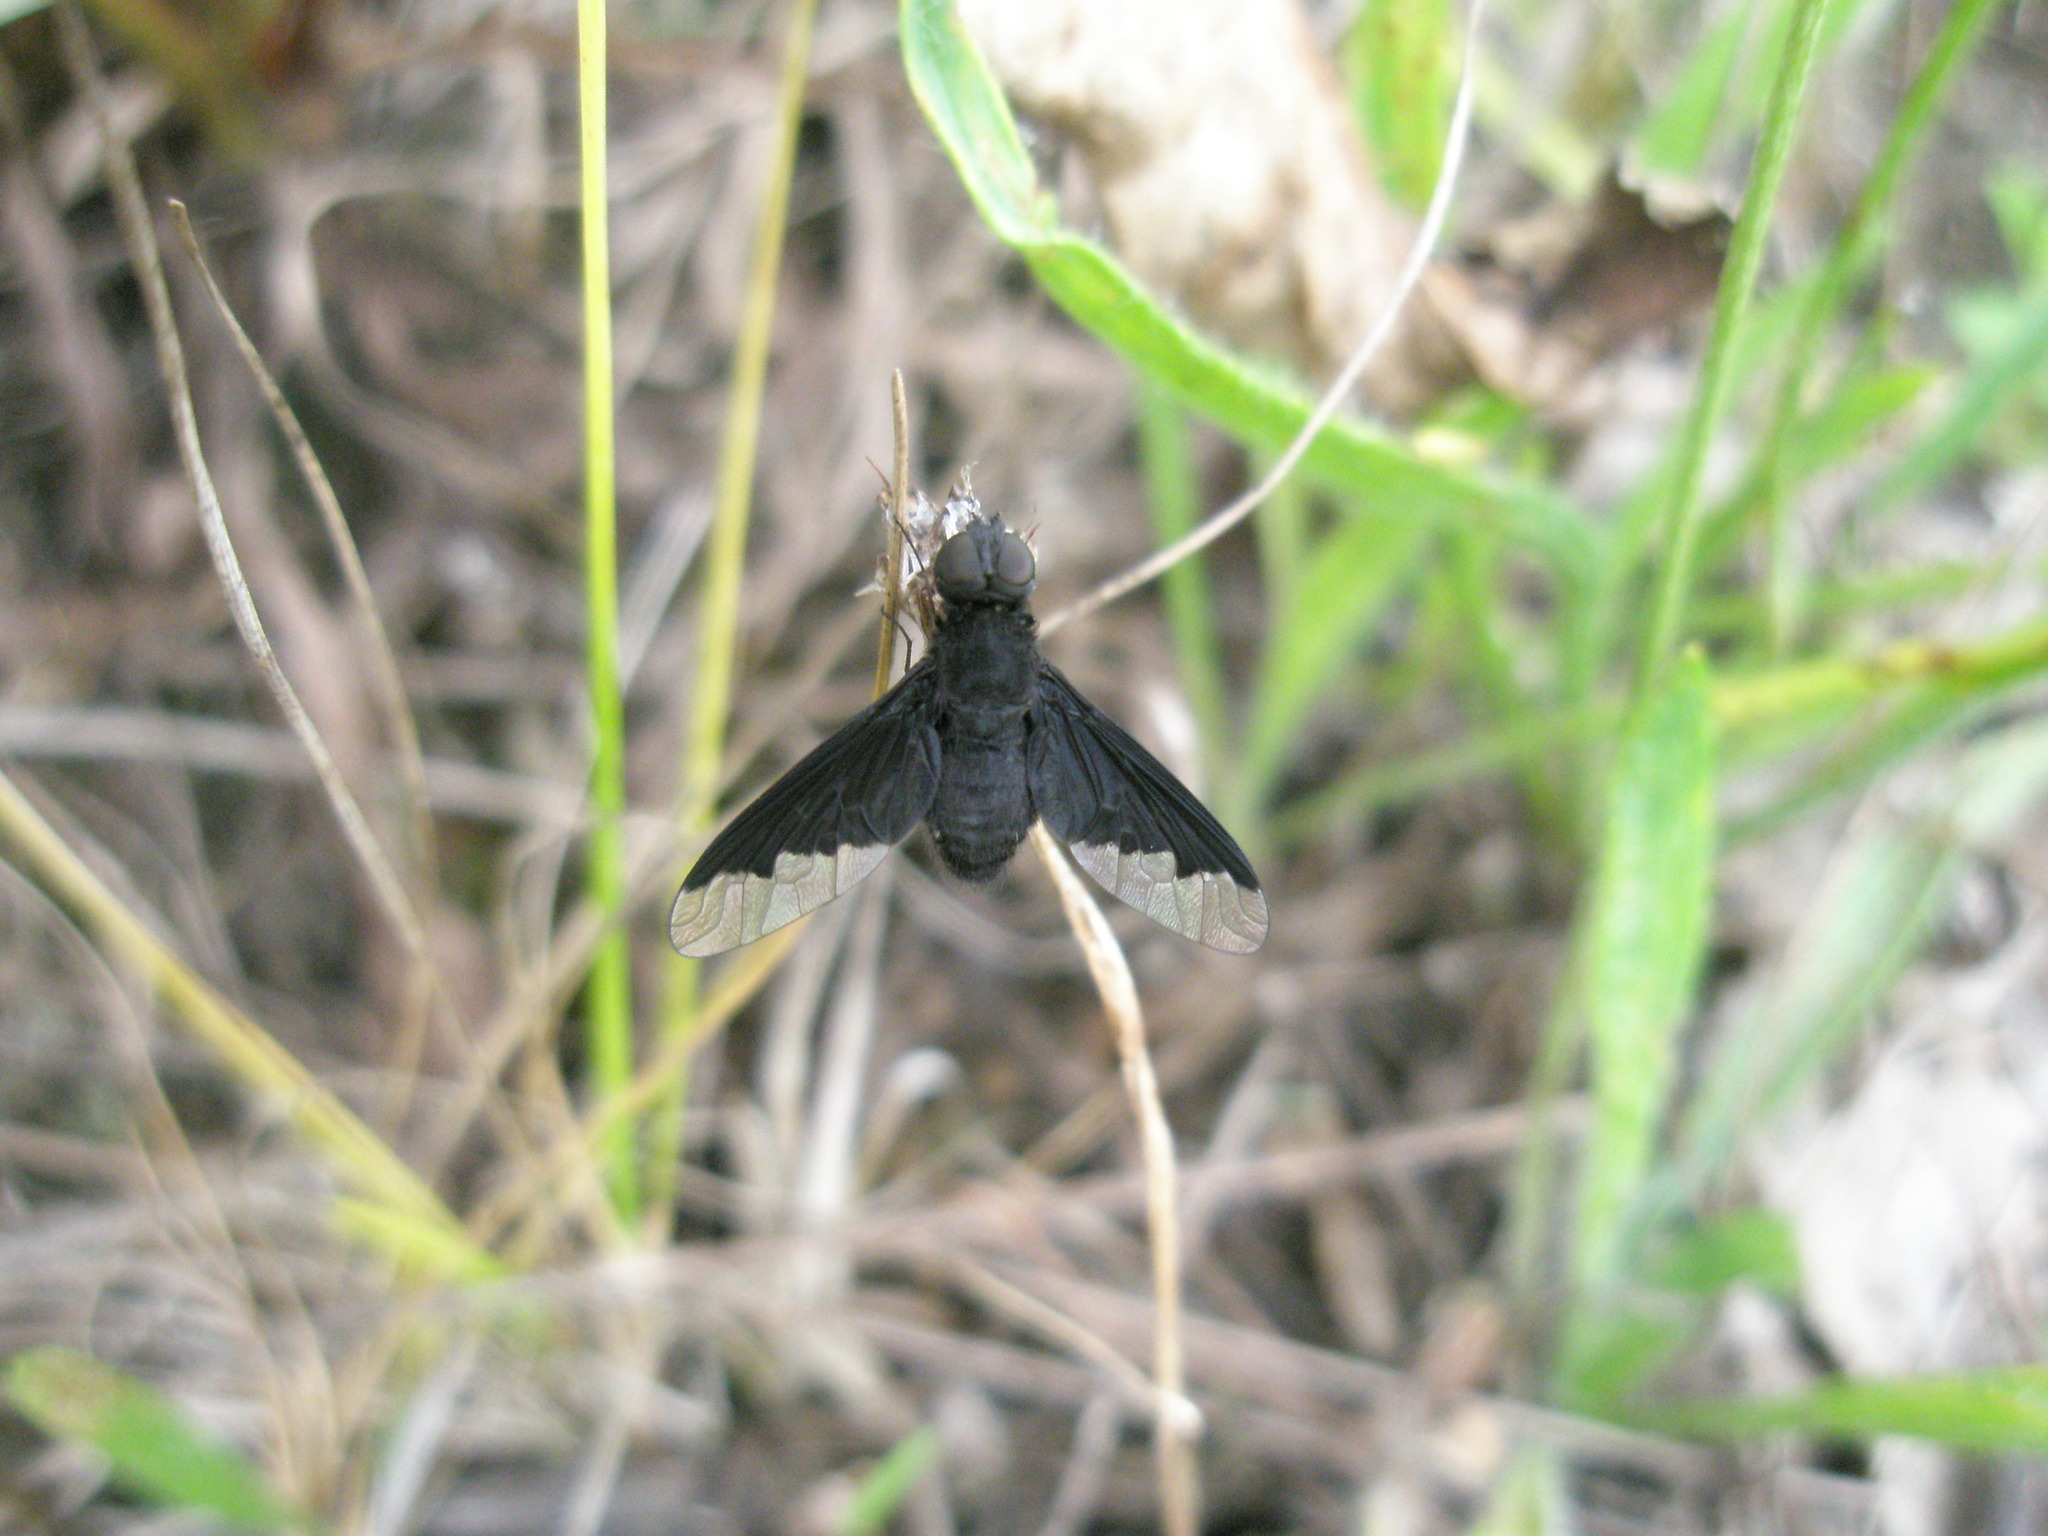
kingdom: Animalia
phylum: Arthropoda
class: Insecta
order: Diptera
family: Bombyliidae
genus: Anthrax
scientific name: Anthrax analis
